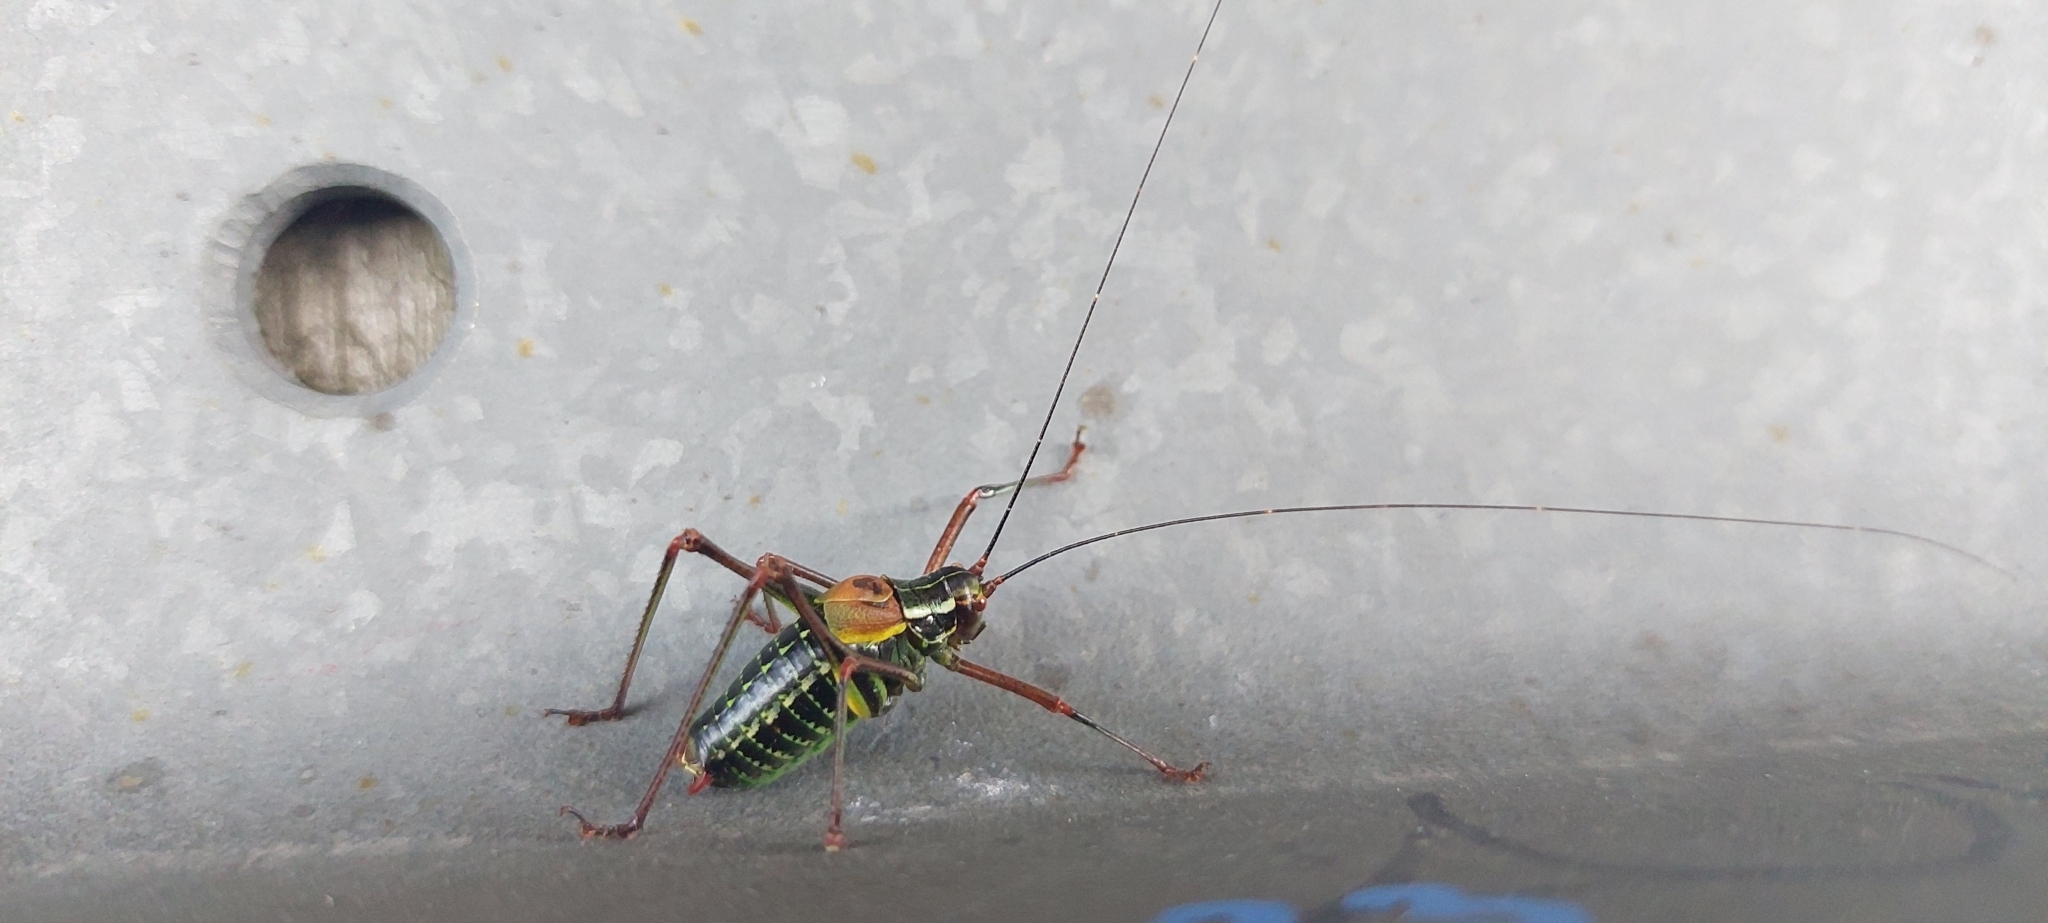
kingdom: Animalia
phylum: Arthropoda
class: Insecta
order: Orthoptera
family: Tettigoniidae
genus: Barbitistes
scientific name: Barbitistes constrictus
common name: Eastern saw-tailed bush cricket
